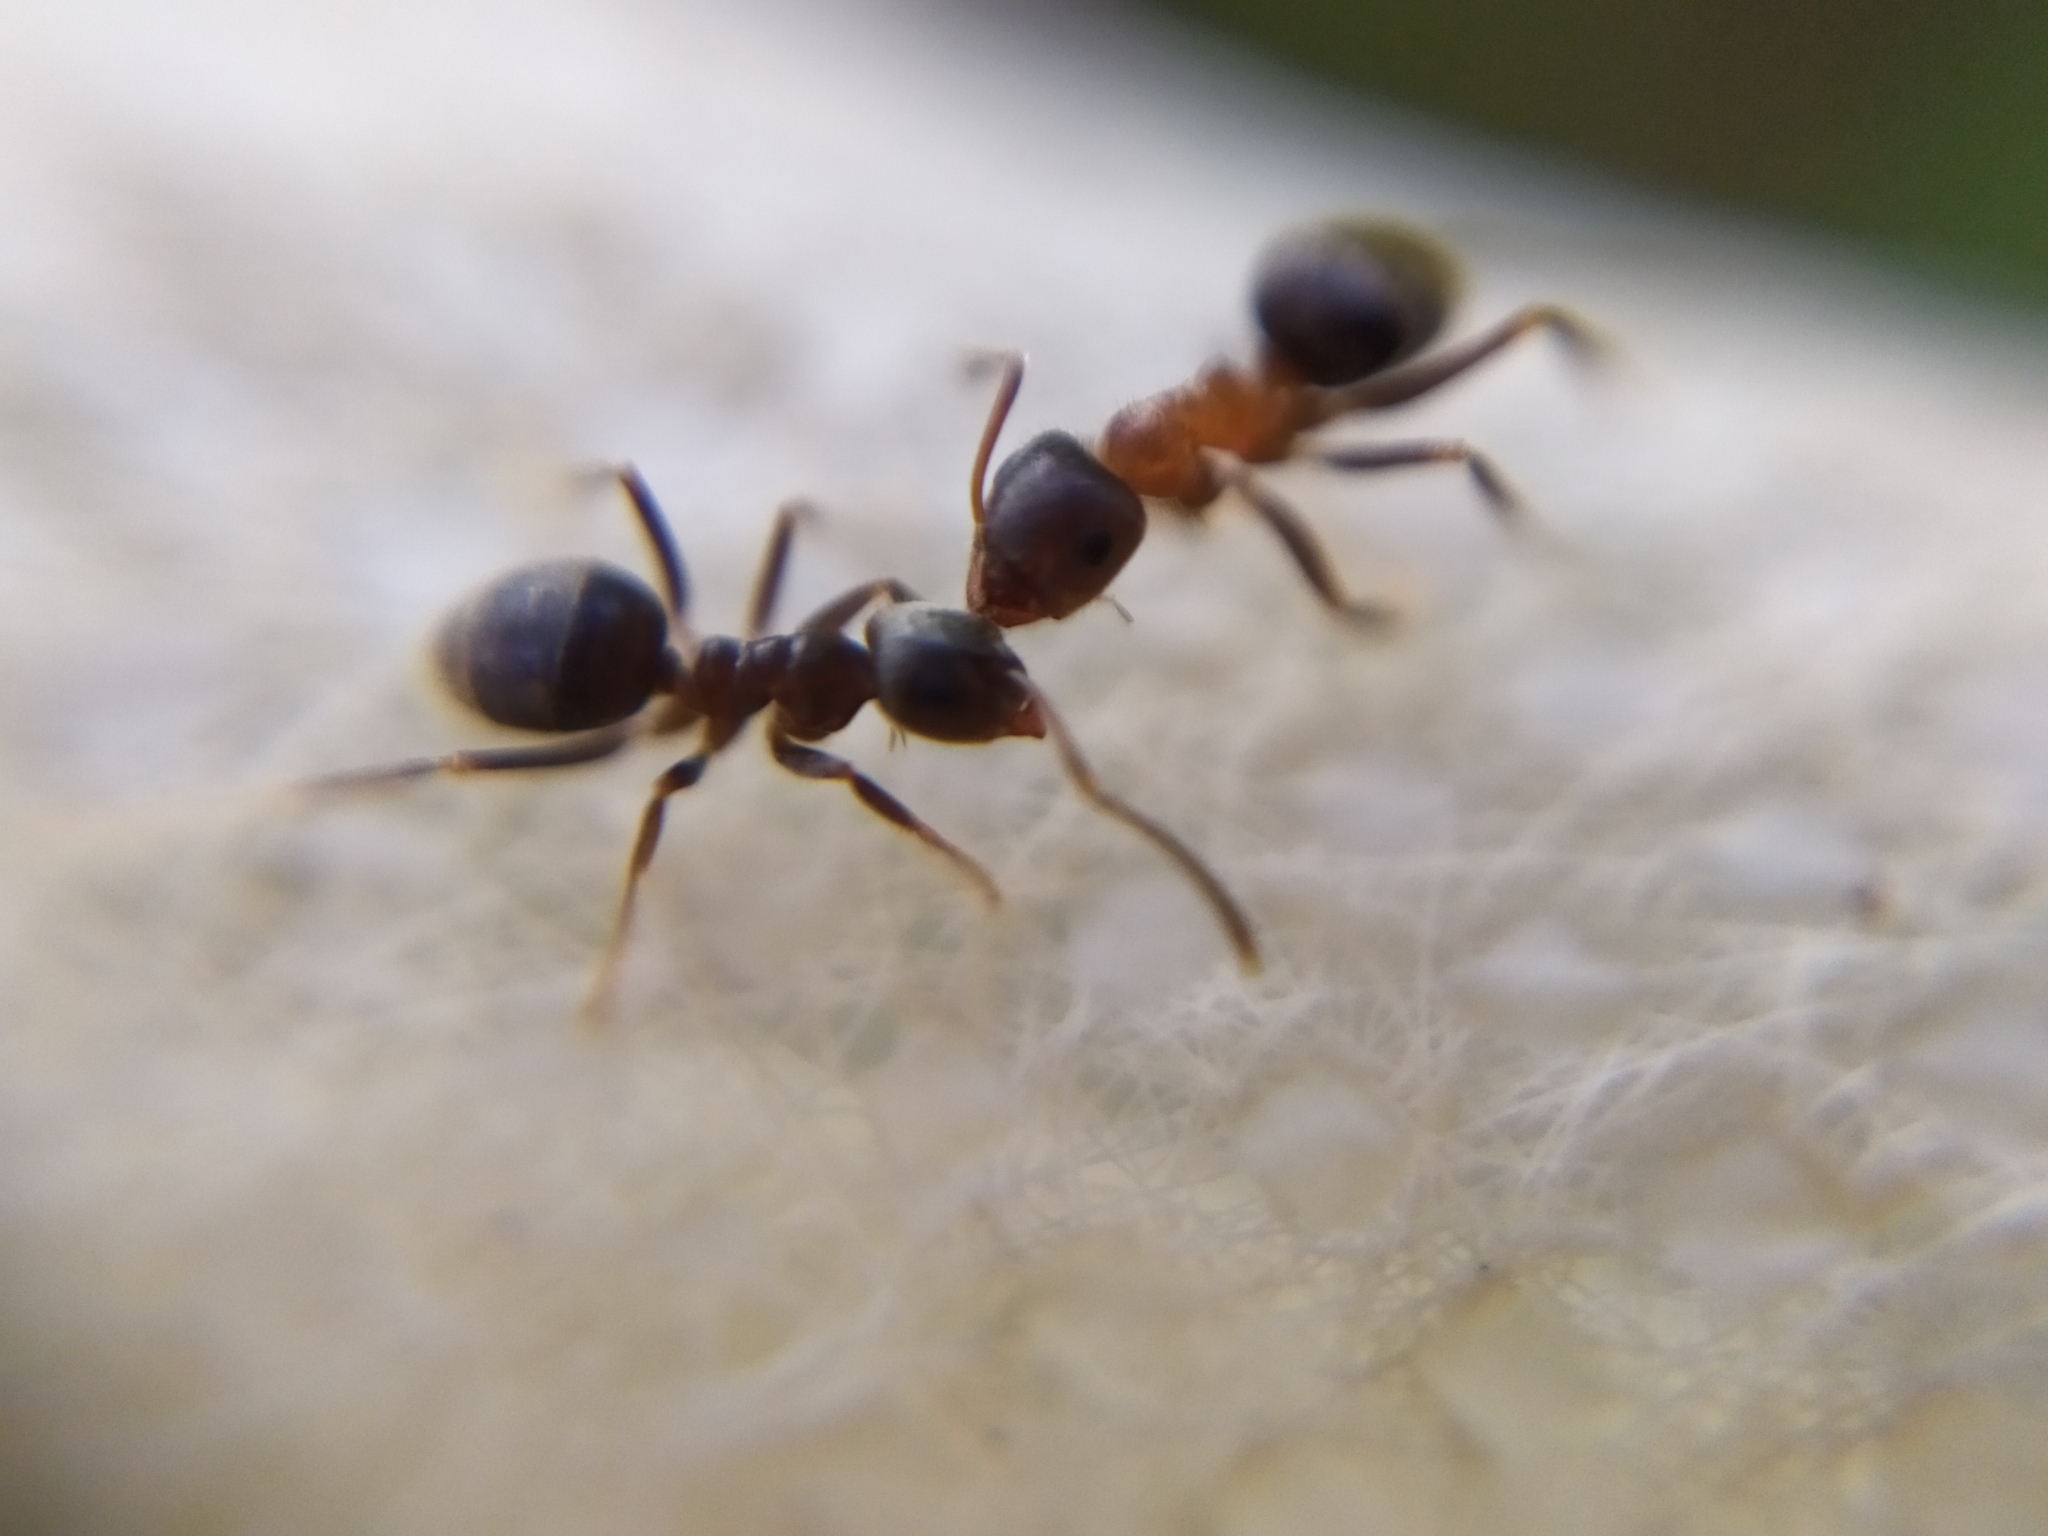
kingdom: Animalia
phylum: Arthropoda
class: Insecta
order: Hymenoptera
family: Formicidae
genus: Lasius
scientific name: Lasius emarginatus
